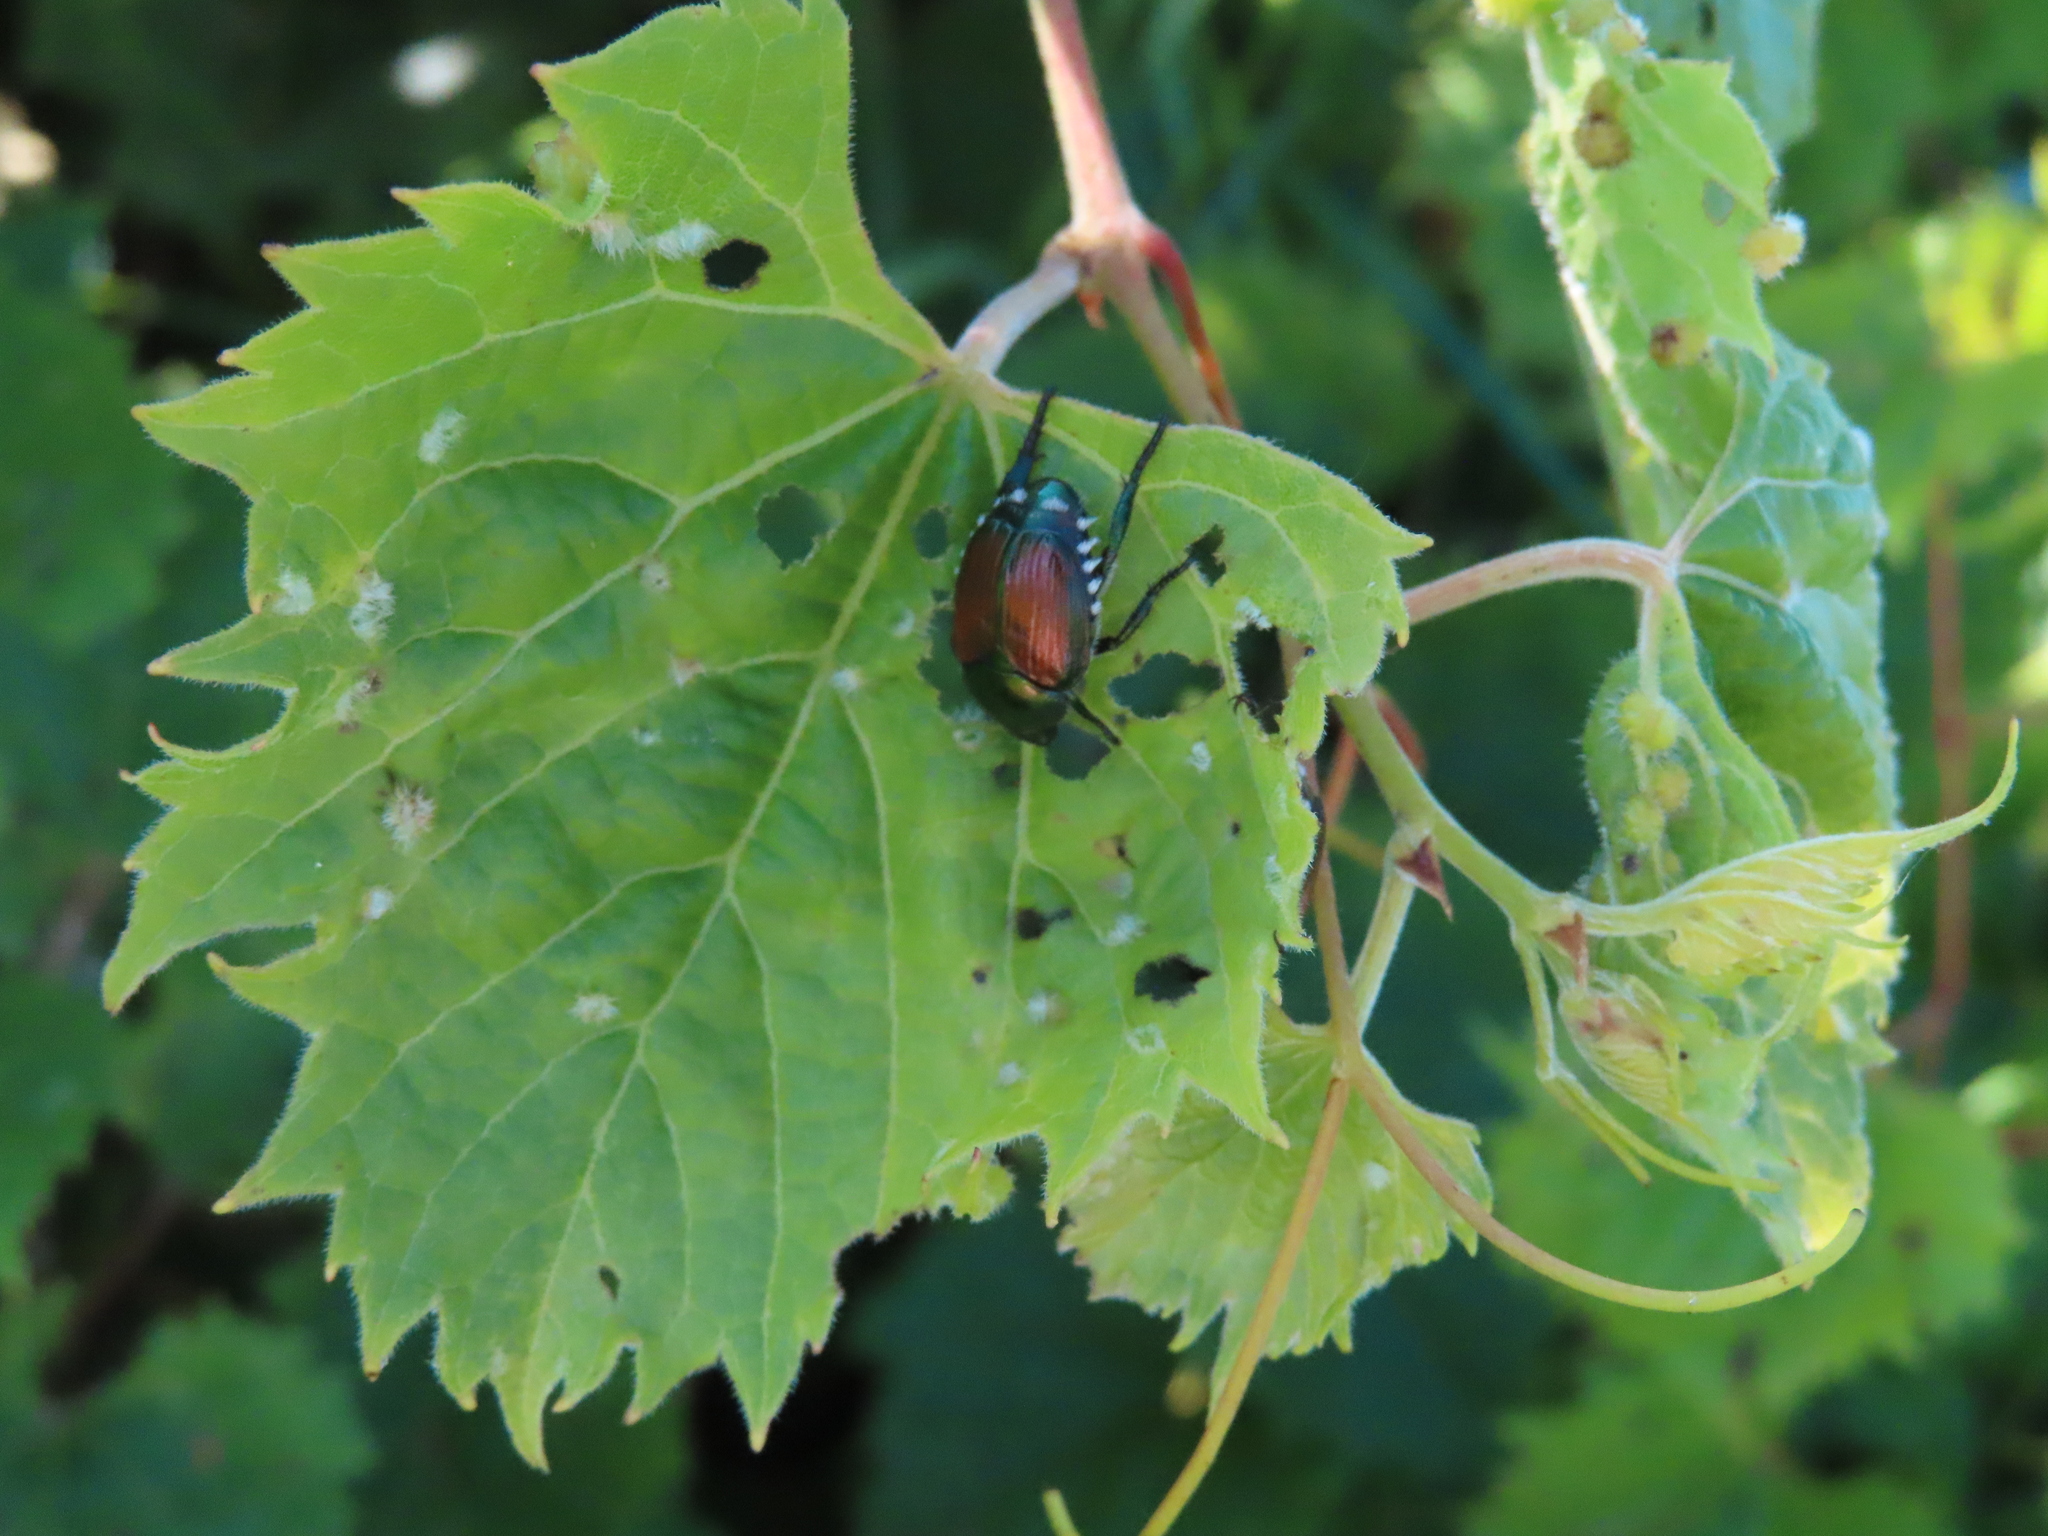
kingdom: Animalia
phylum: Arthropoda
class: Insecta
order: Coleoptera
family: Scarabaeidae
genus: Popillia
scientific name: Popillia japonica
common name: Japanese beetle
